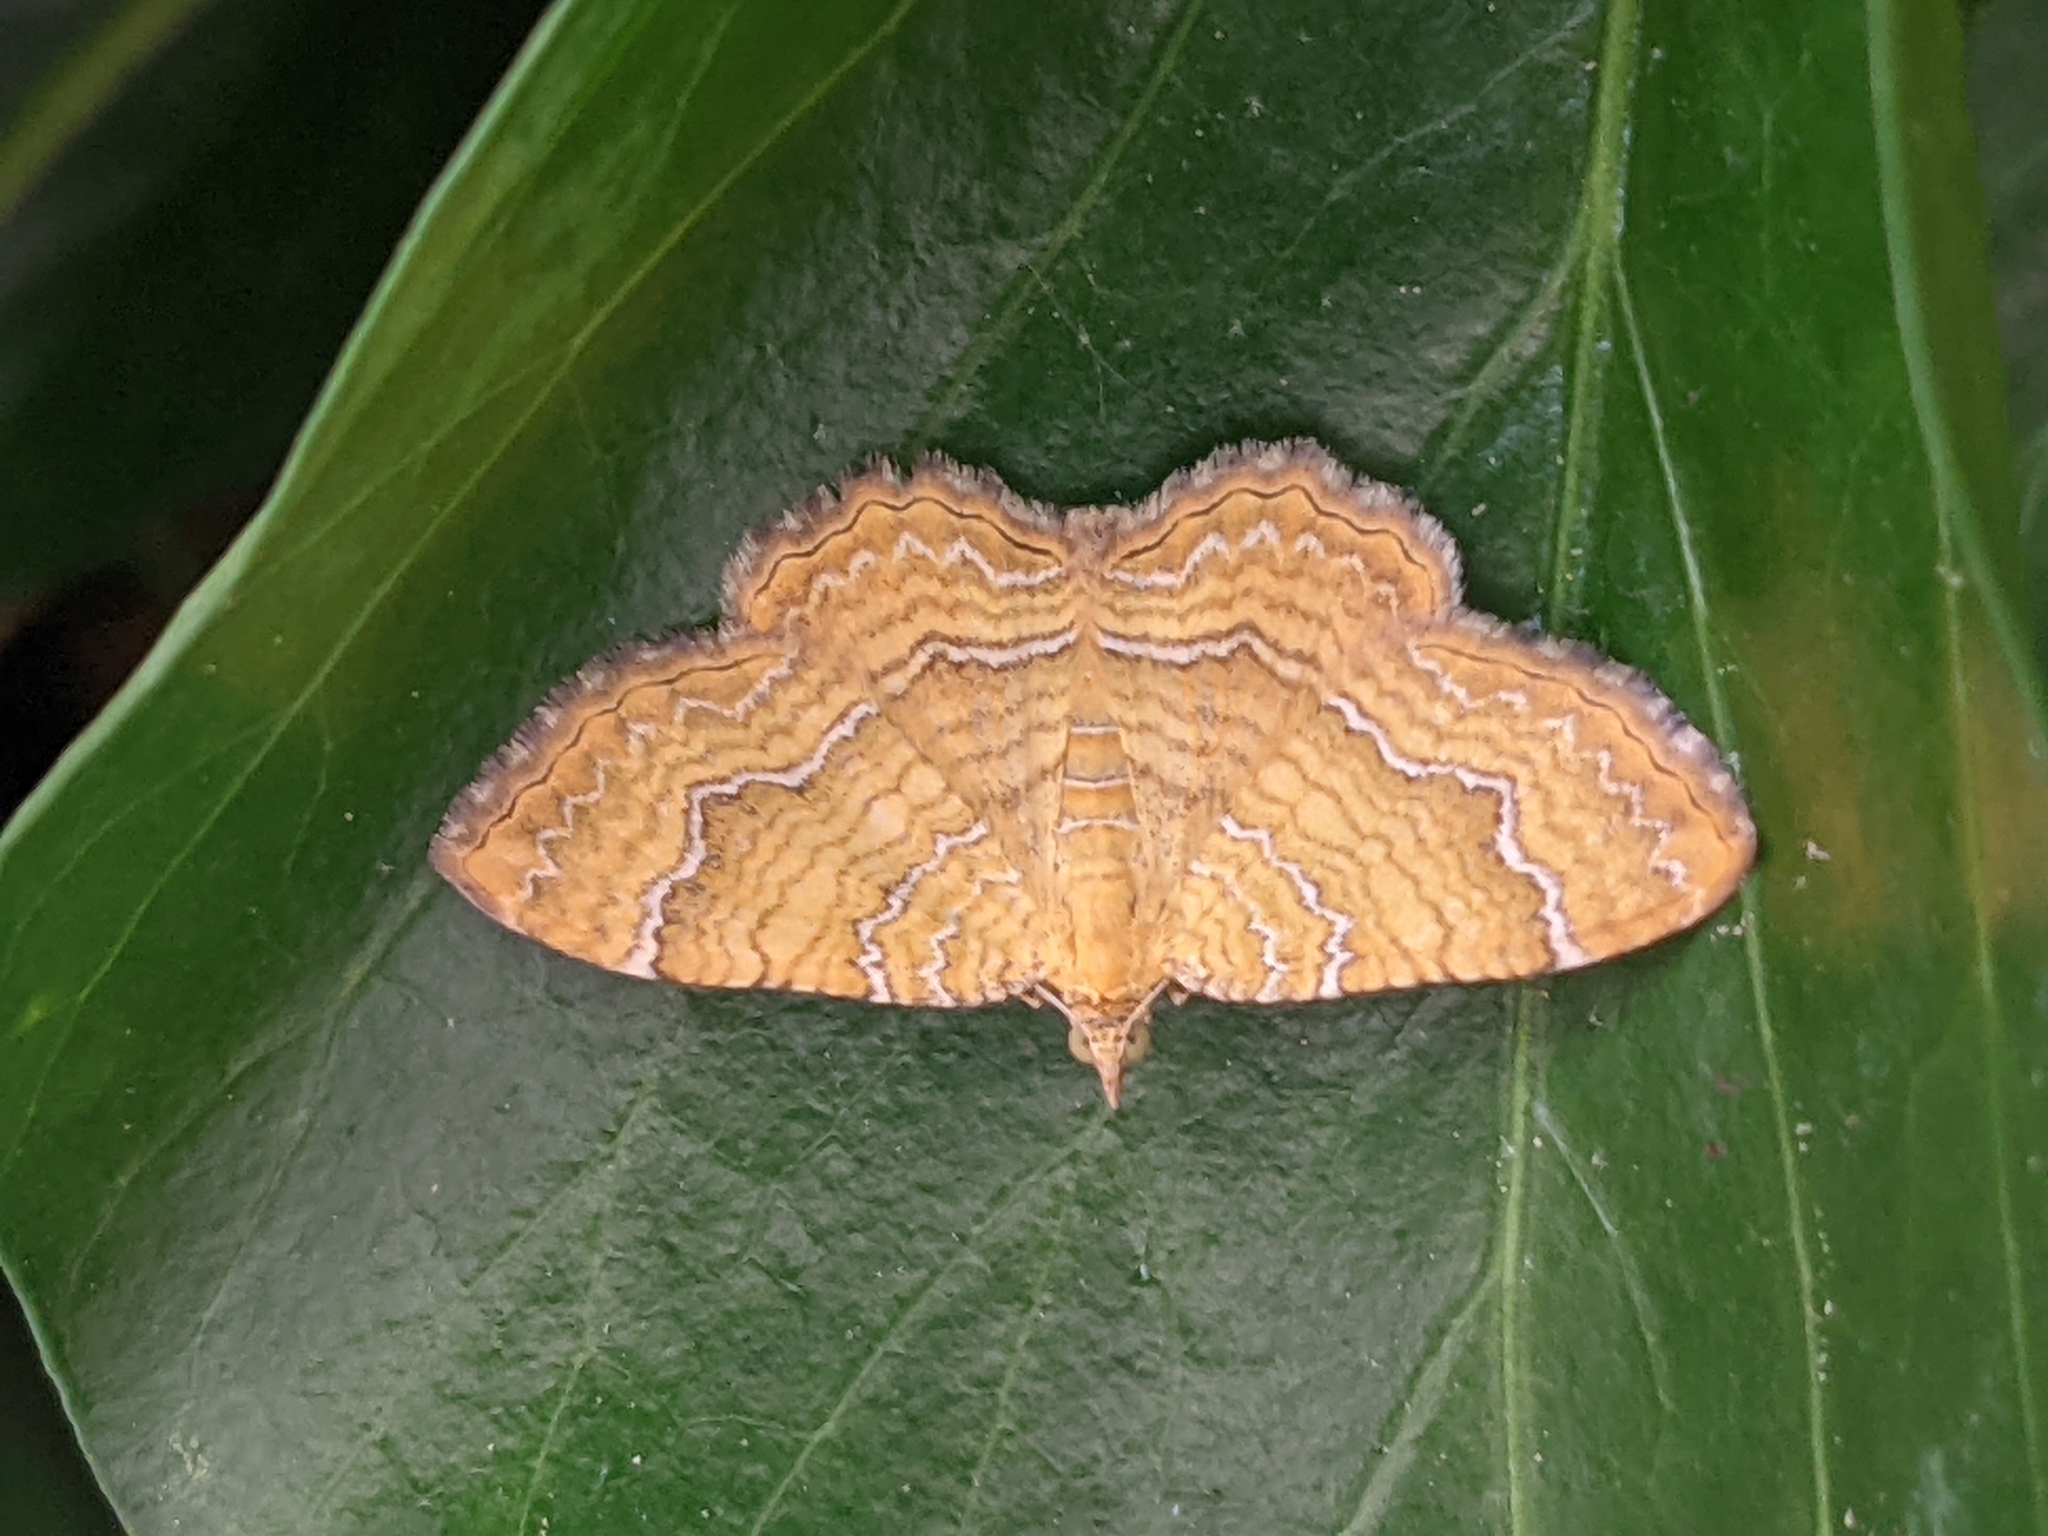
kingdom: Animalia
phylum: Arthropoda
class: Insecta
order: Lepidoptera
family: Geometridae
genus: Camptogramma
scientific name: Camptogramma bilineata
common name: Yellow shell
